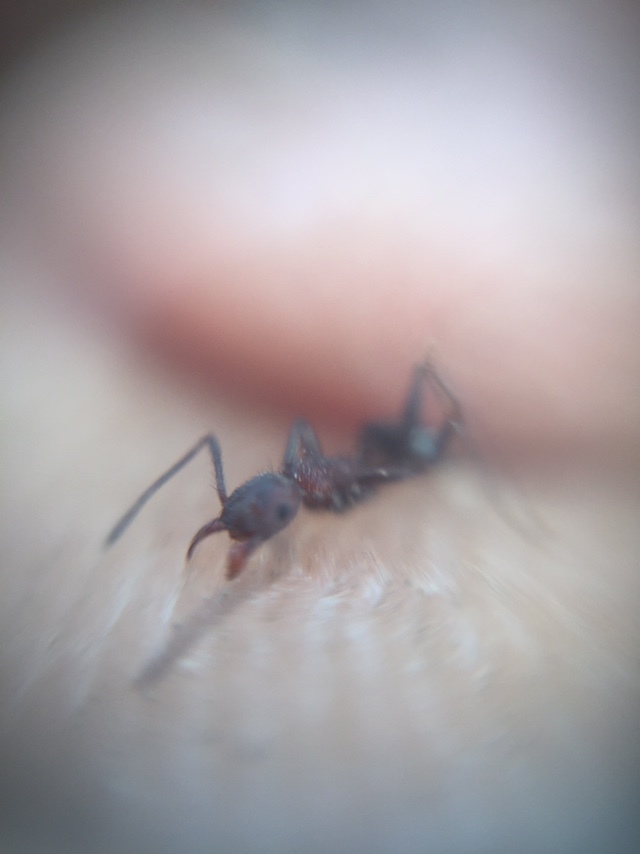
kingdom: Animalia
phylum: Arthropoda
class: Insecta
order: Hymenoptera
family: Formicidae
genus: Pheidole
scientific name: Pheidole sharpi
